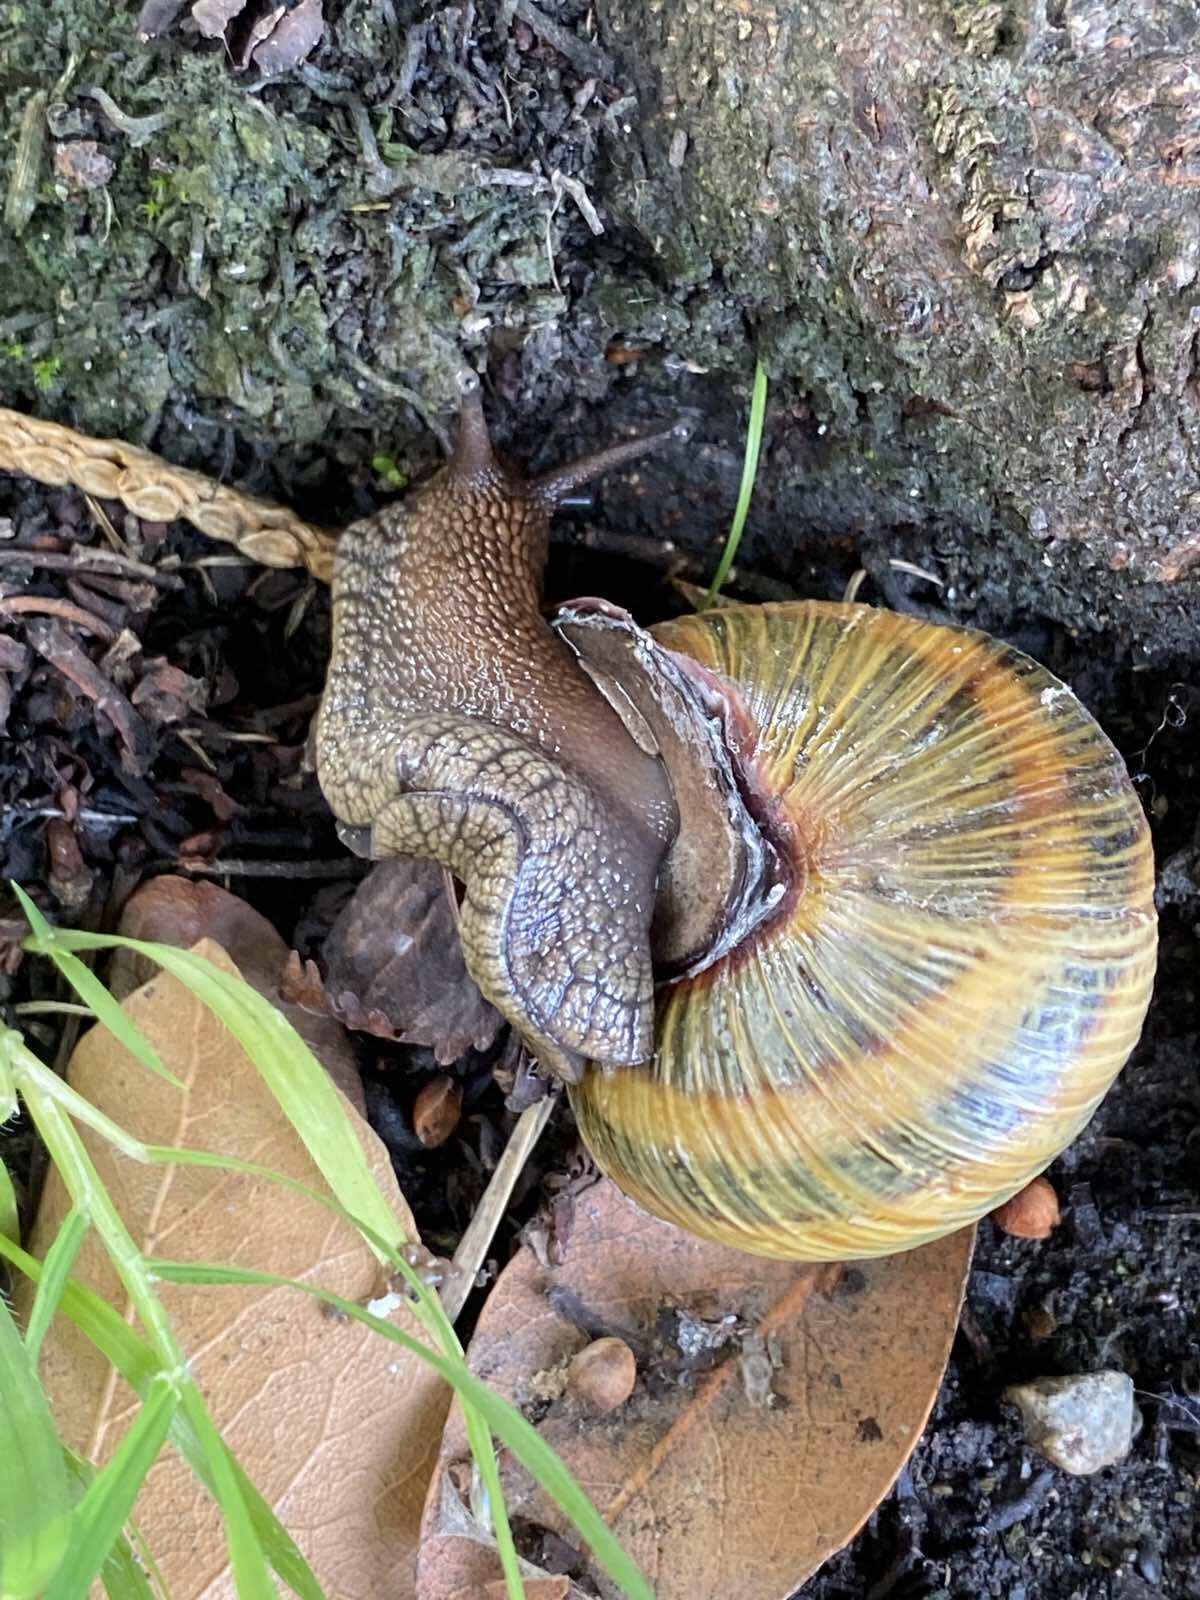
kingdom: Animalia
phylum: Mollusca
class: Gastropoda
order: Stylommatophora
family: Helicidae
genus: Caucasotachea
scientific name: Caucasotachea atrolabiata
